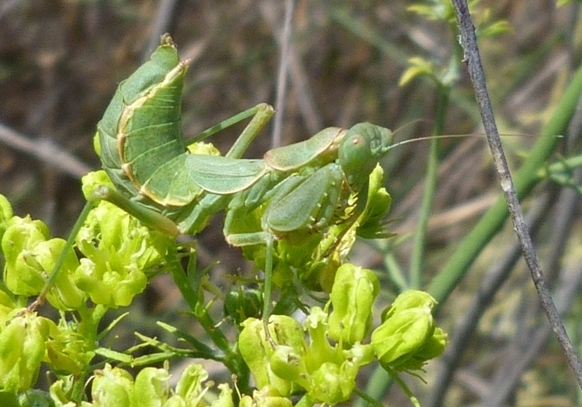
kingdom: Animalia
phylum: Arthropoda
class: Insecta
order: Mantodea
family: Amelidae
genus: Ameles
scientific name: Ameles spallanzania
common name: European dwarf mantis
